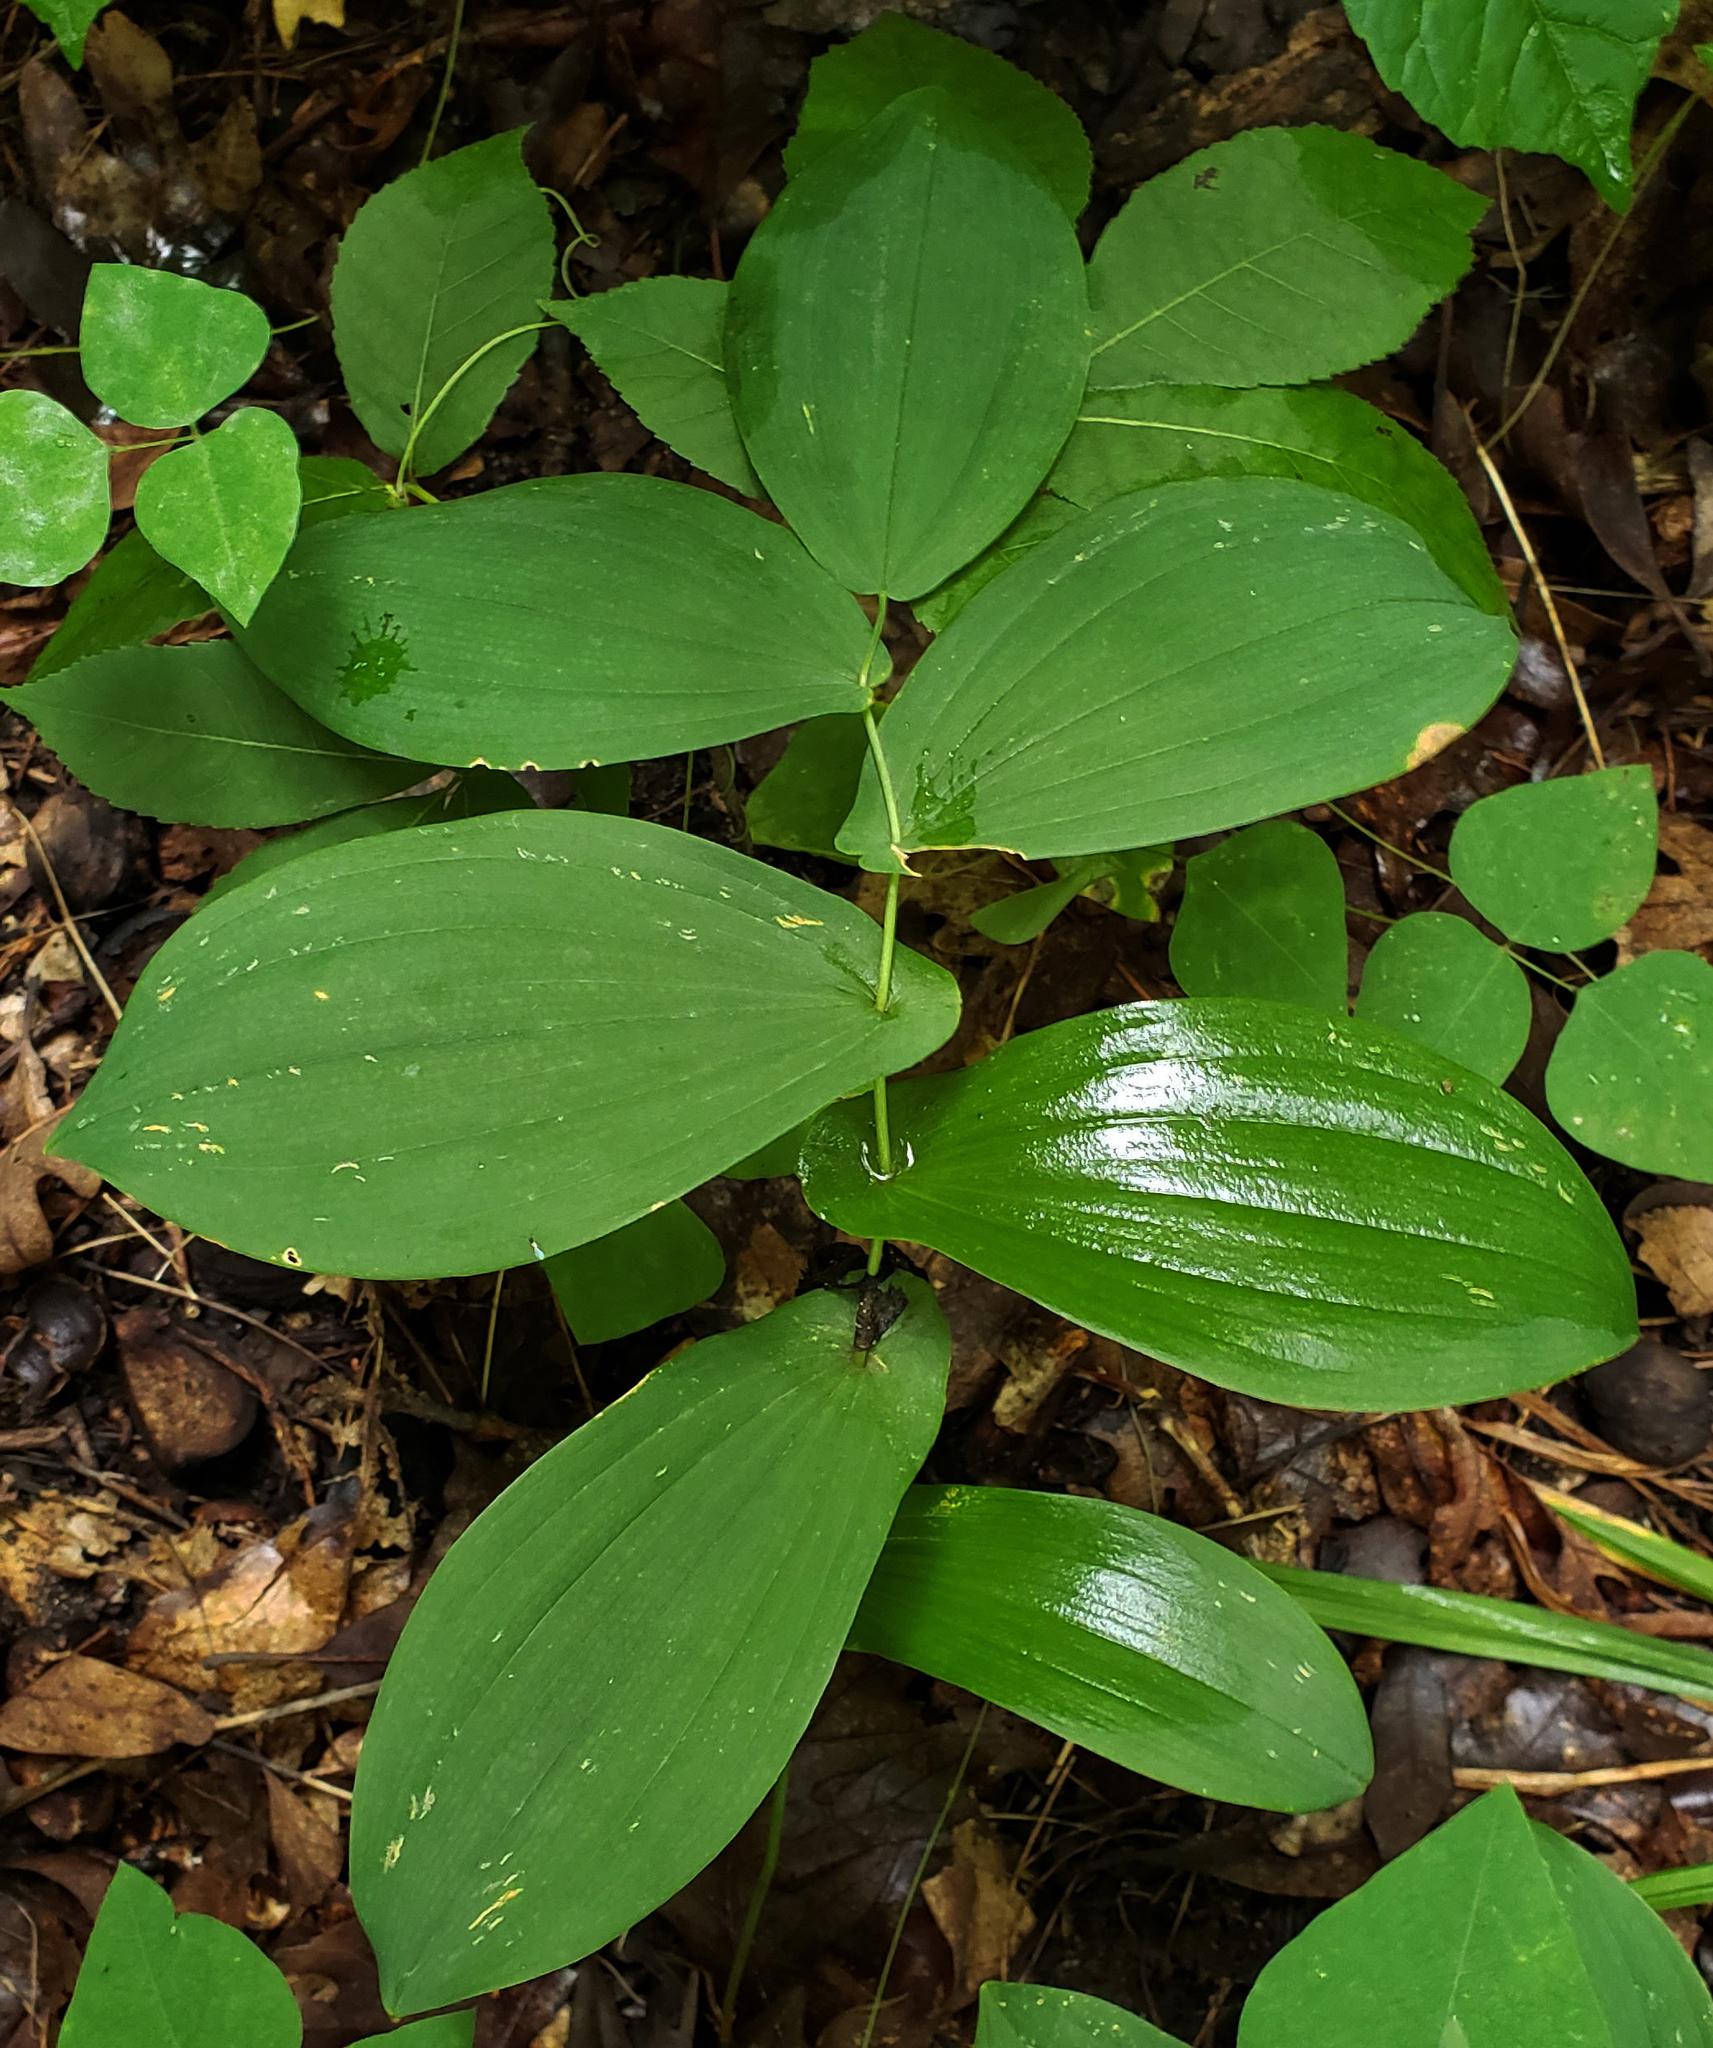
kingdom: Plantae
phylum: Tracheophyta
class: Liliopsida
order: Liliales
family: Colchicaceae
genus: Uvularia
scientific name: Uvularia grandiflora
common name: Bellwort
